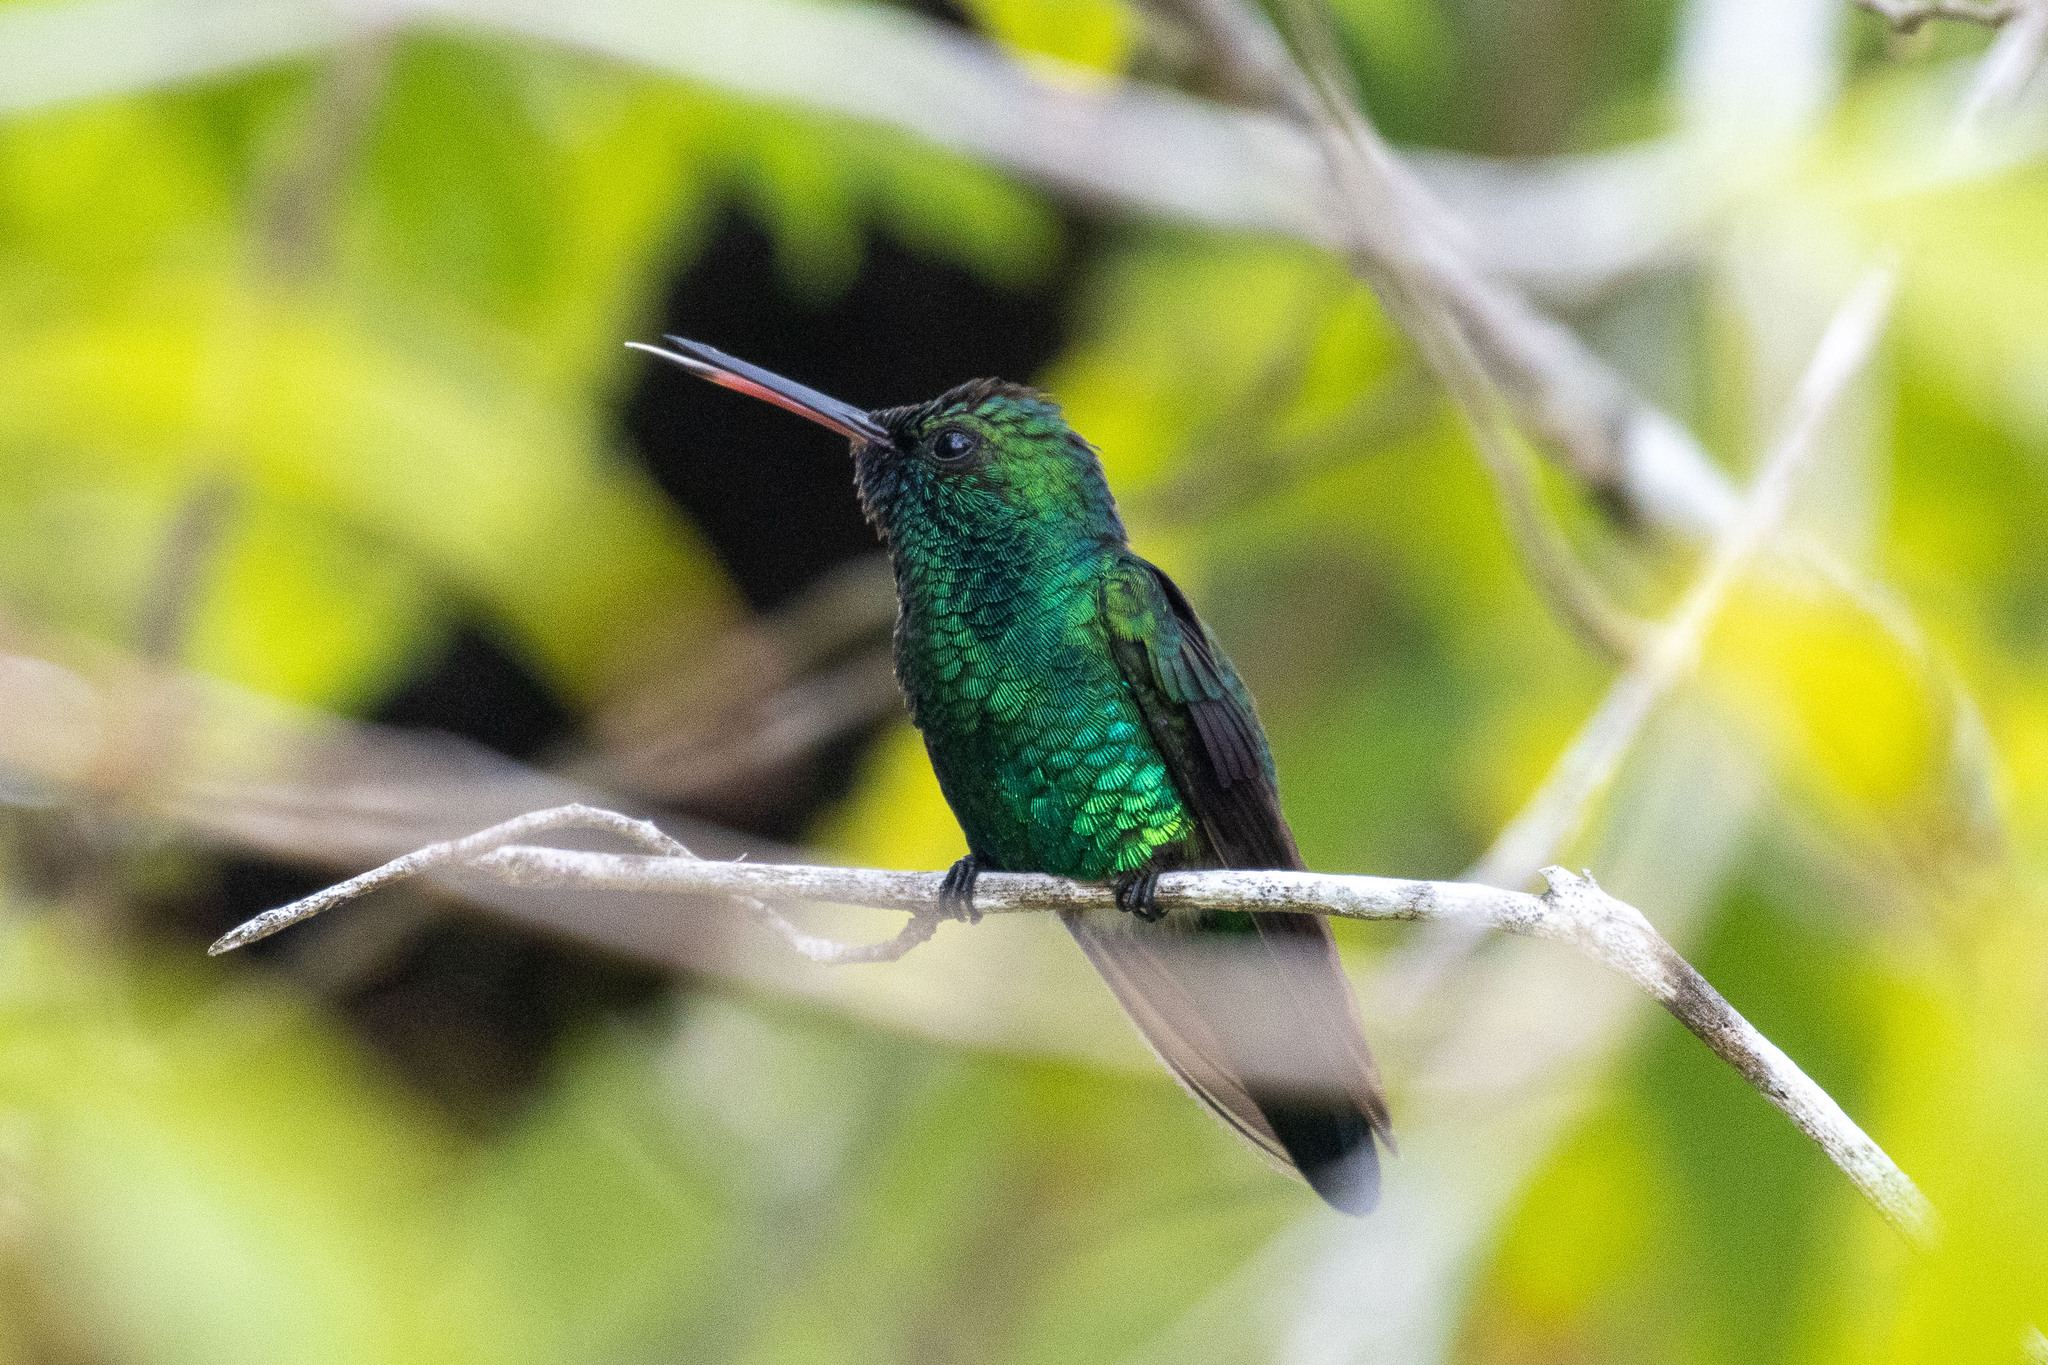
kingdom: Animalia
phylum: Chordata
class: Aves
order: Apodiformes
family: Trochilidae
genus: Chlorestes
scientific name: Chlorestes notata
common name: Blue-chinned sapphire
